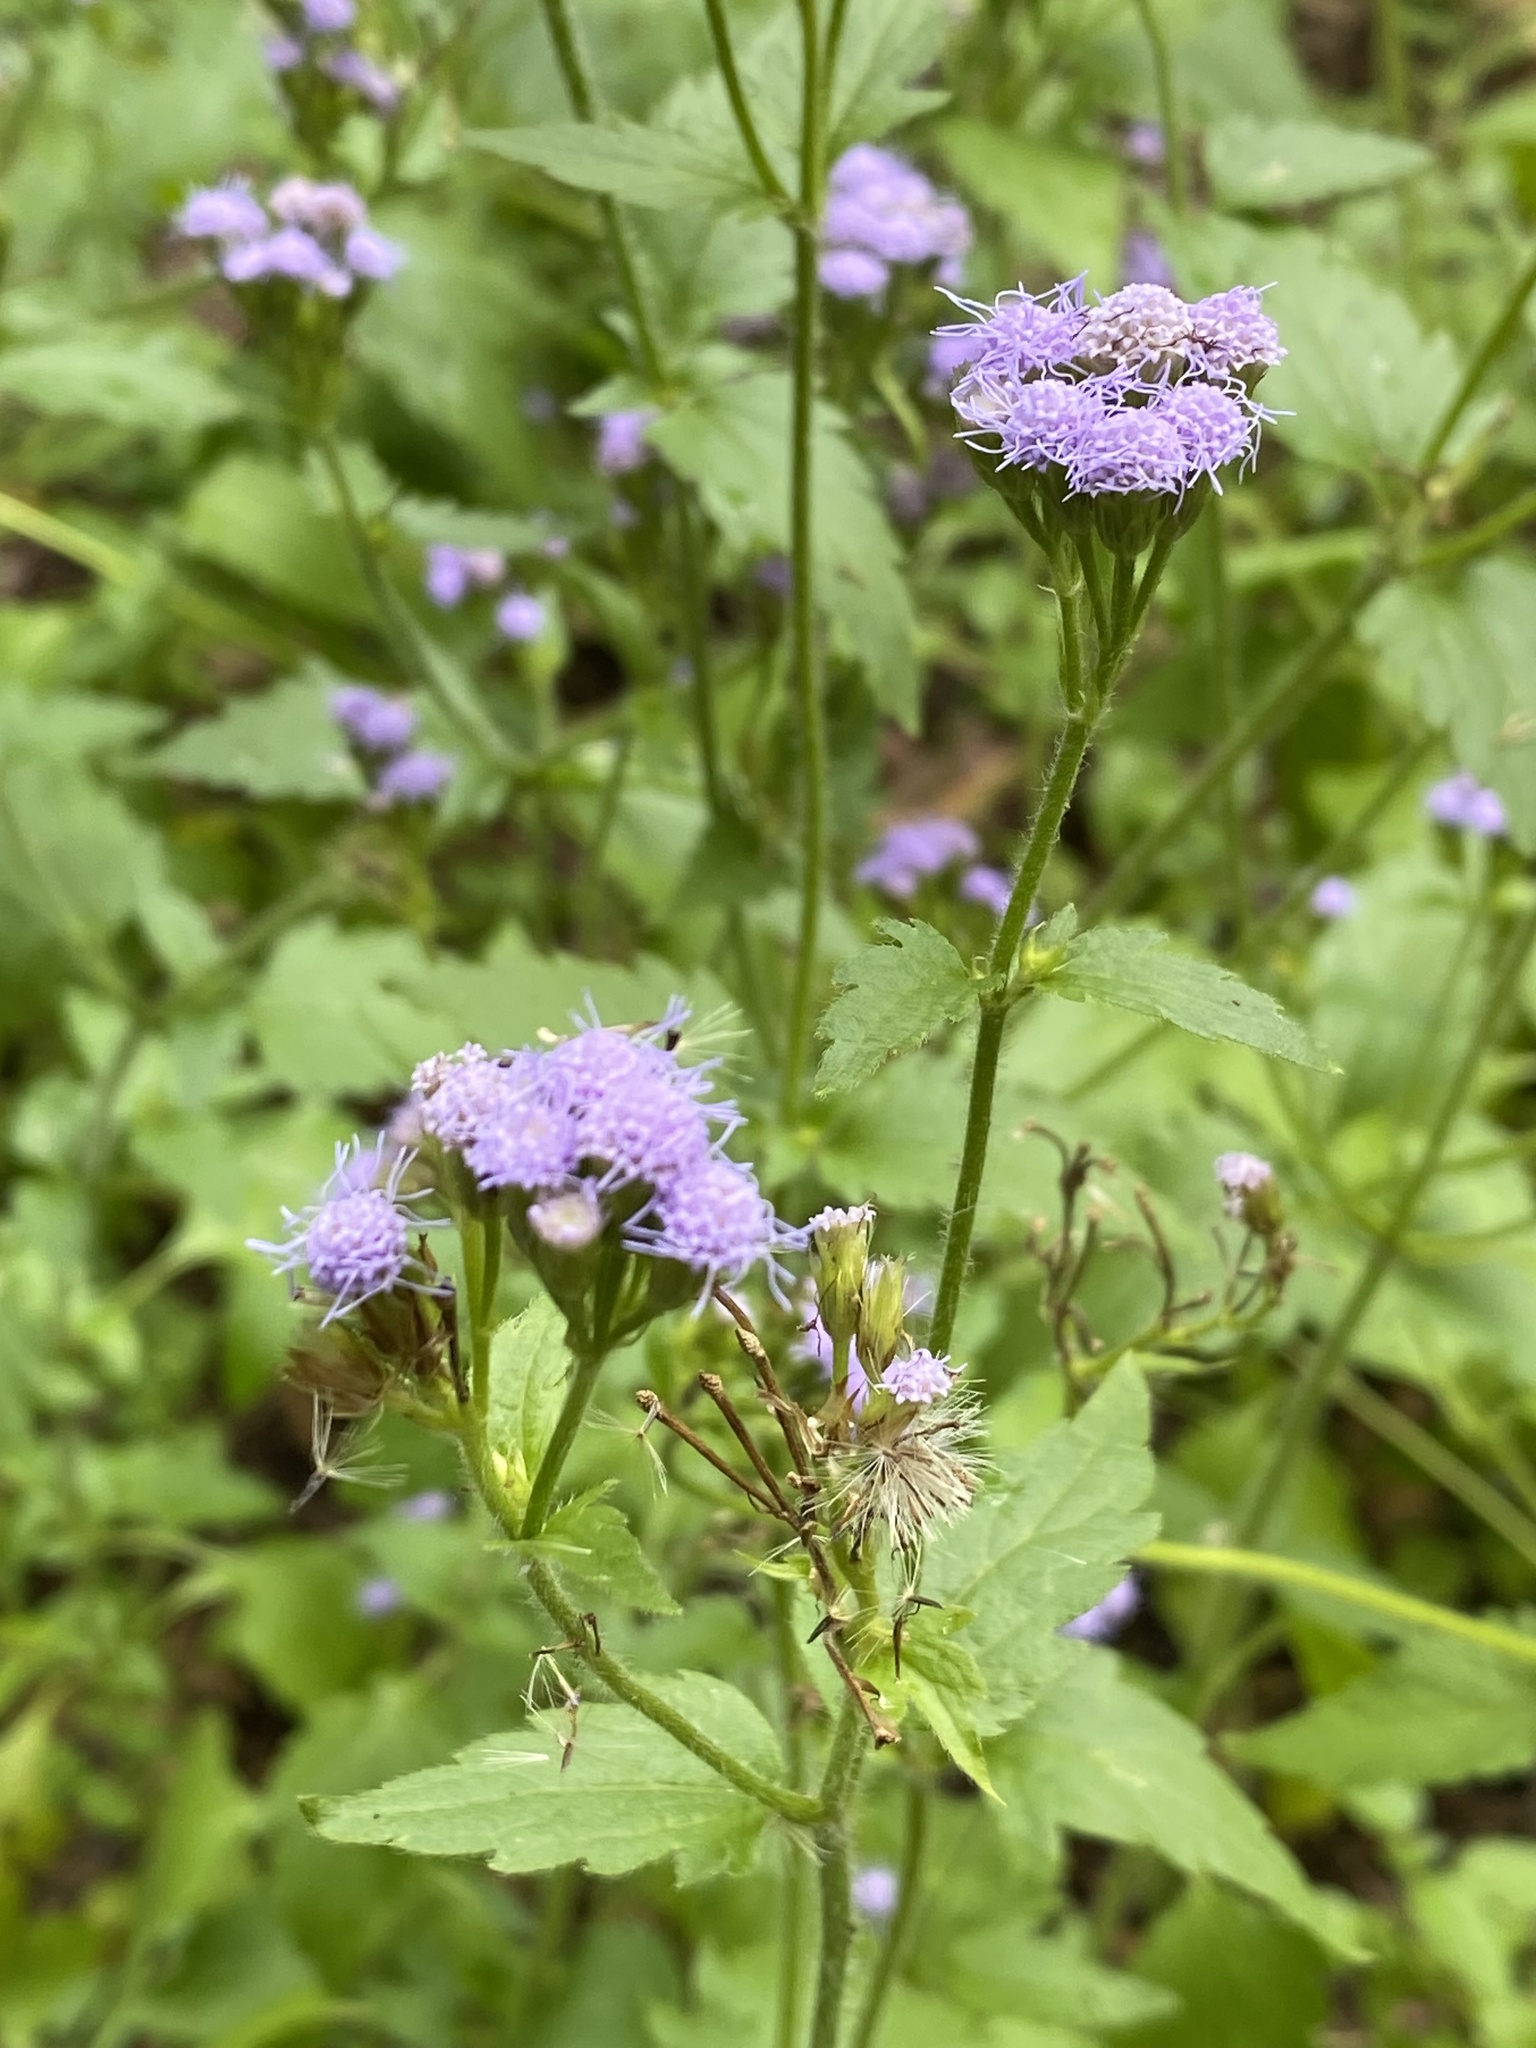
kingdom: Plantae
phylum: Tracheophyta
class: Magnoliopsida
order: Asterales
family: Asteraceae
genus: Praxelis
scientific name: Praxelis clematidea
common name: Praxelis
